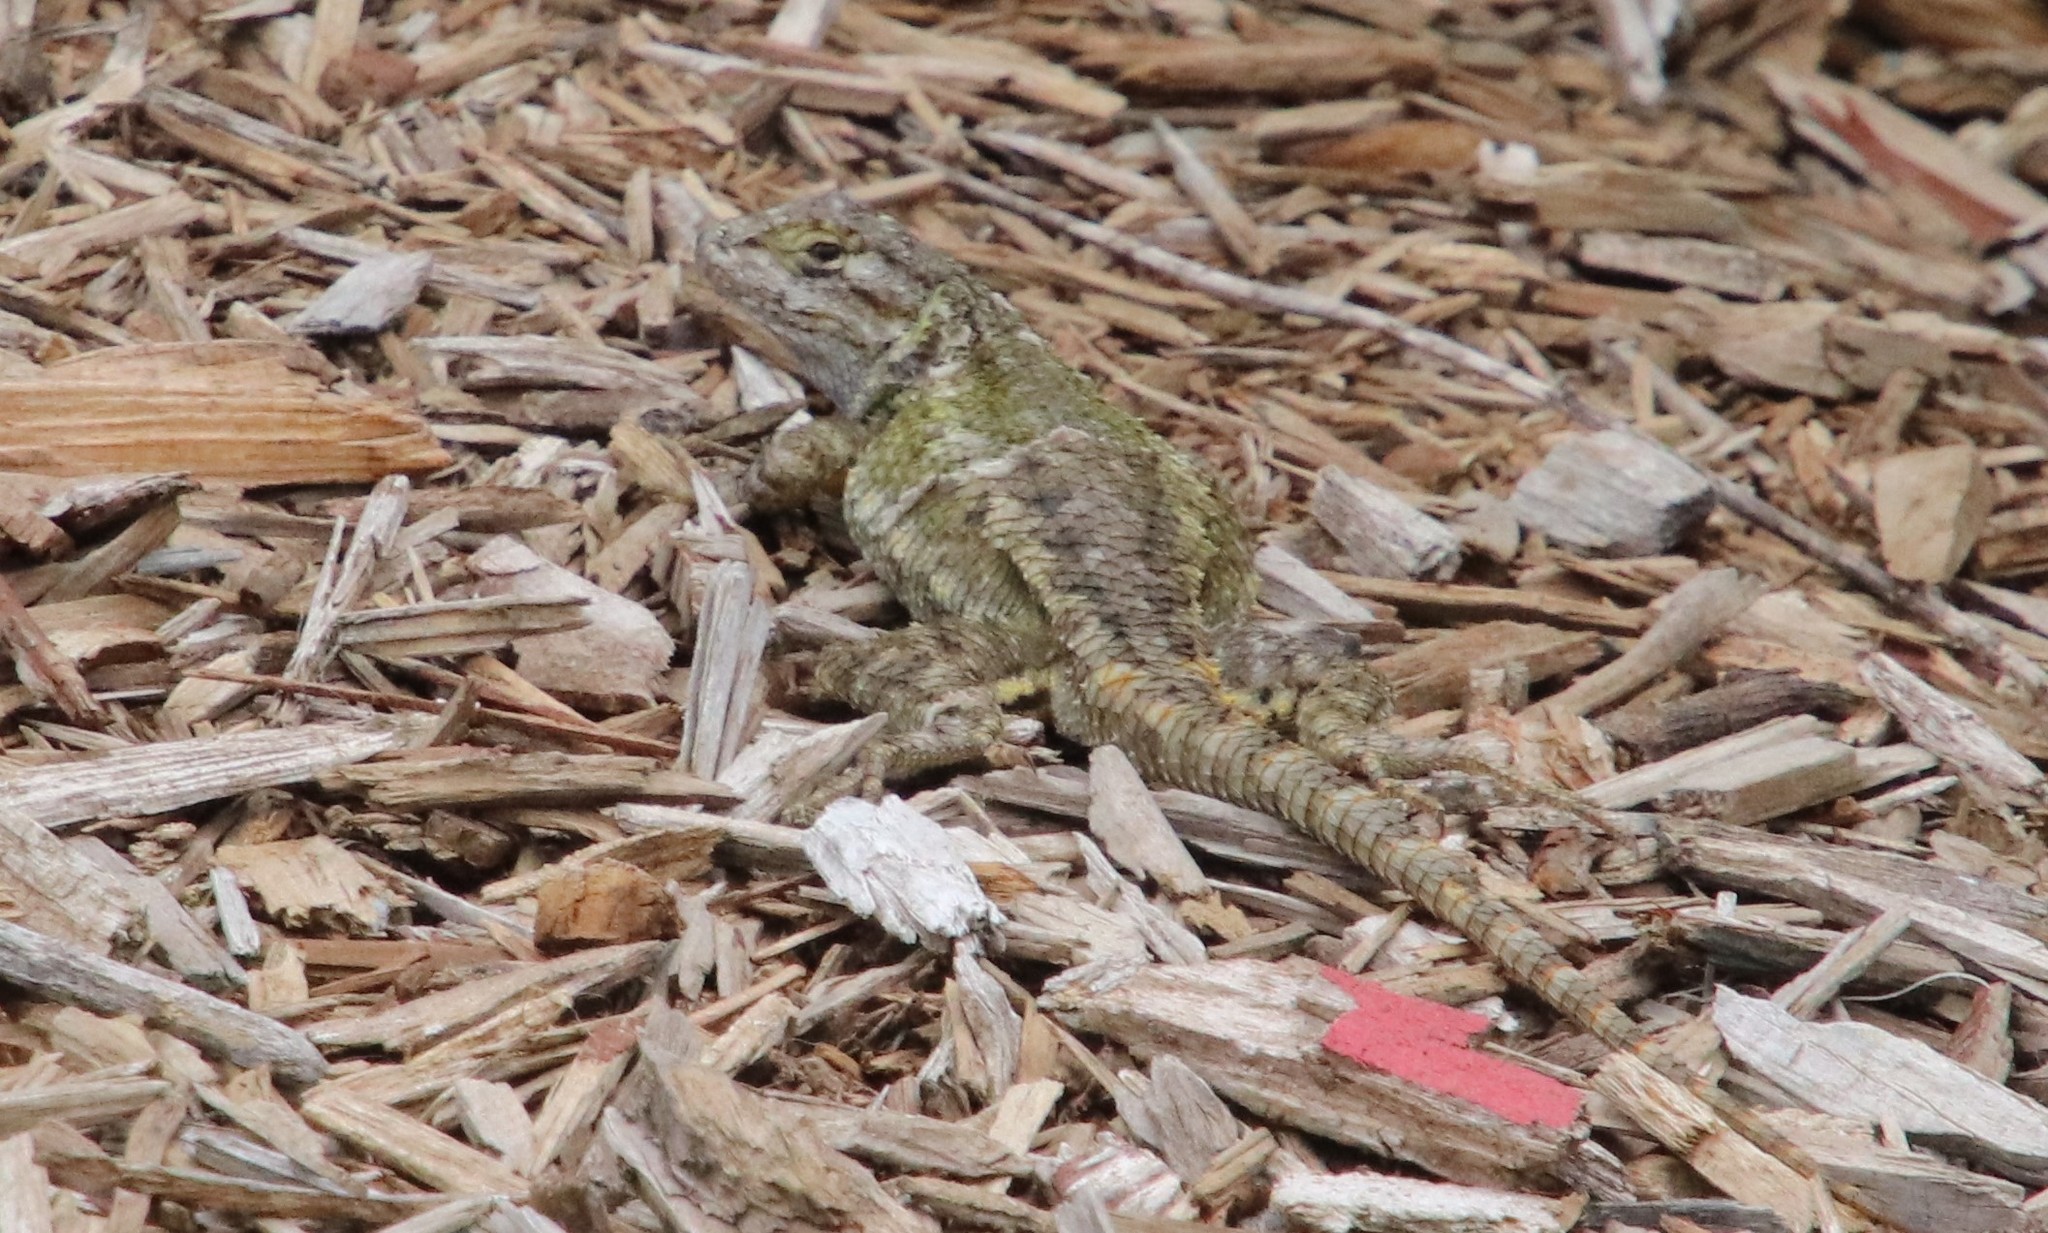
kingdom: Animalia
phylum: Chordata
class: Squamata
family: Phrynosomatidae
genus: Sceloporus
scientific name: Sceloporus occidentalis
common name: Western fence lizard
